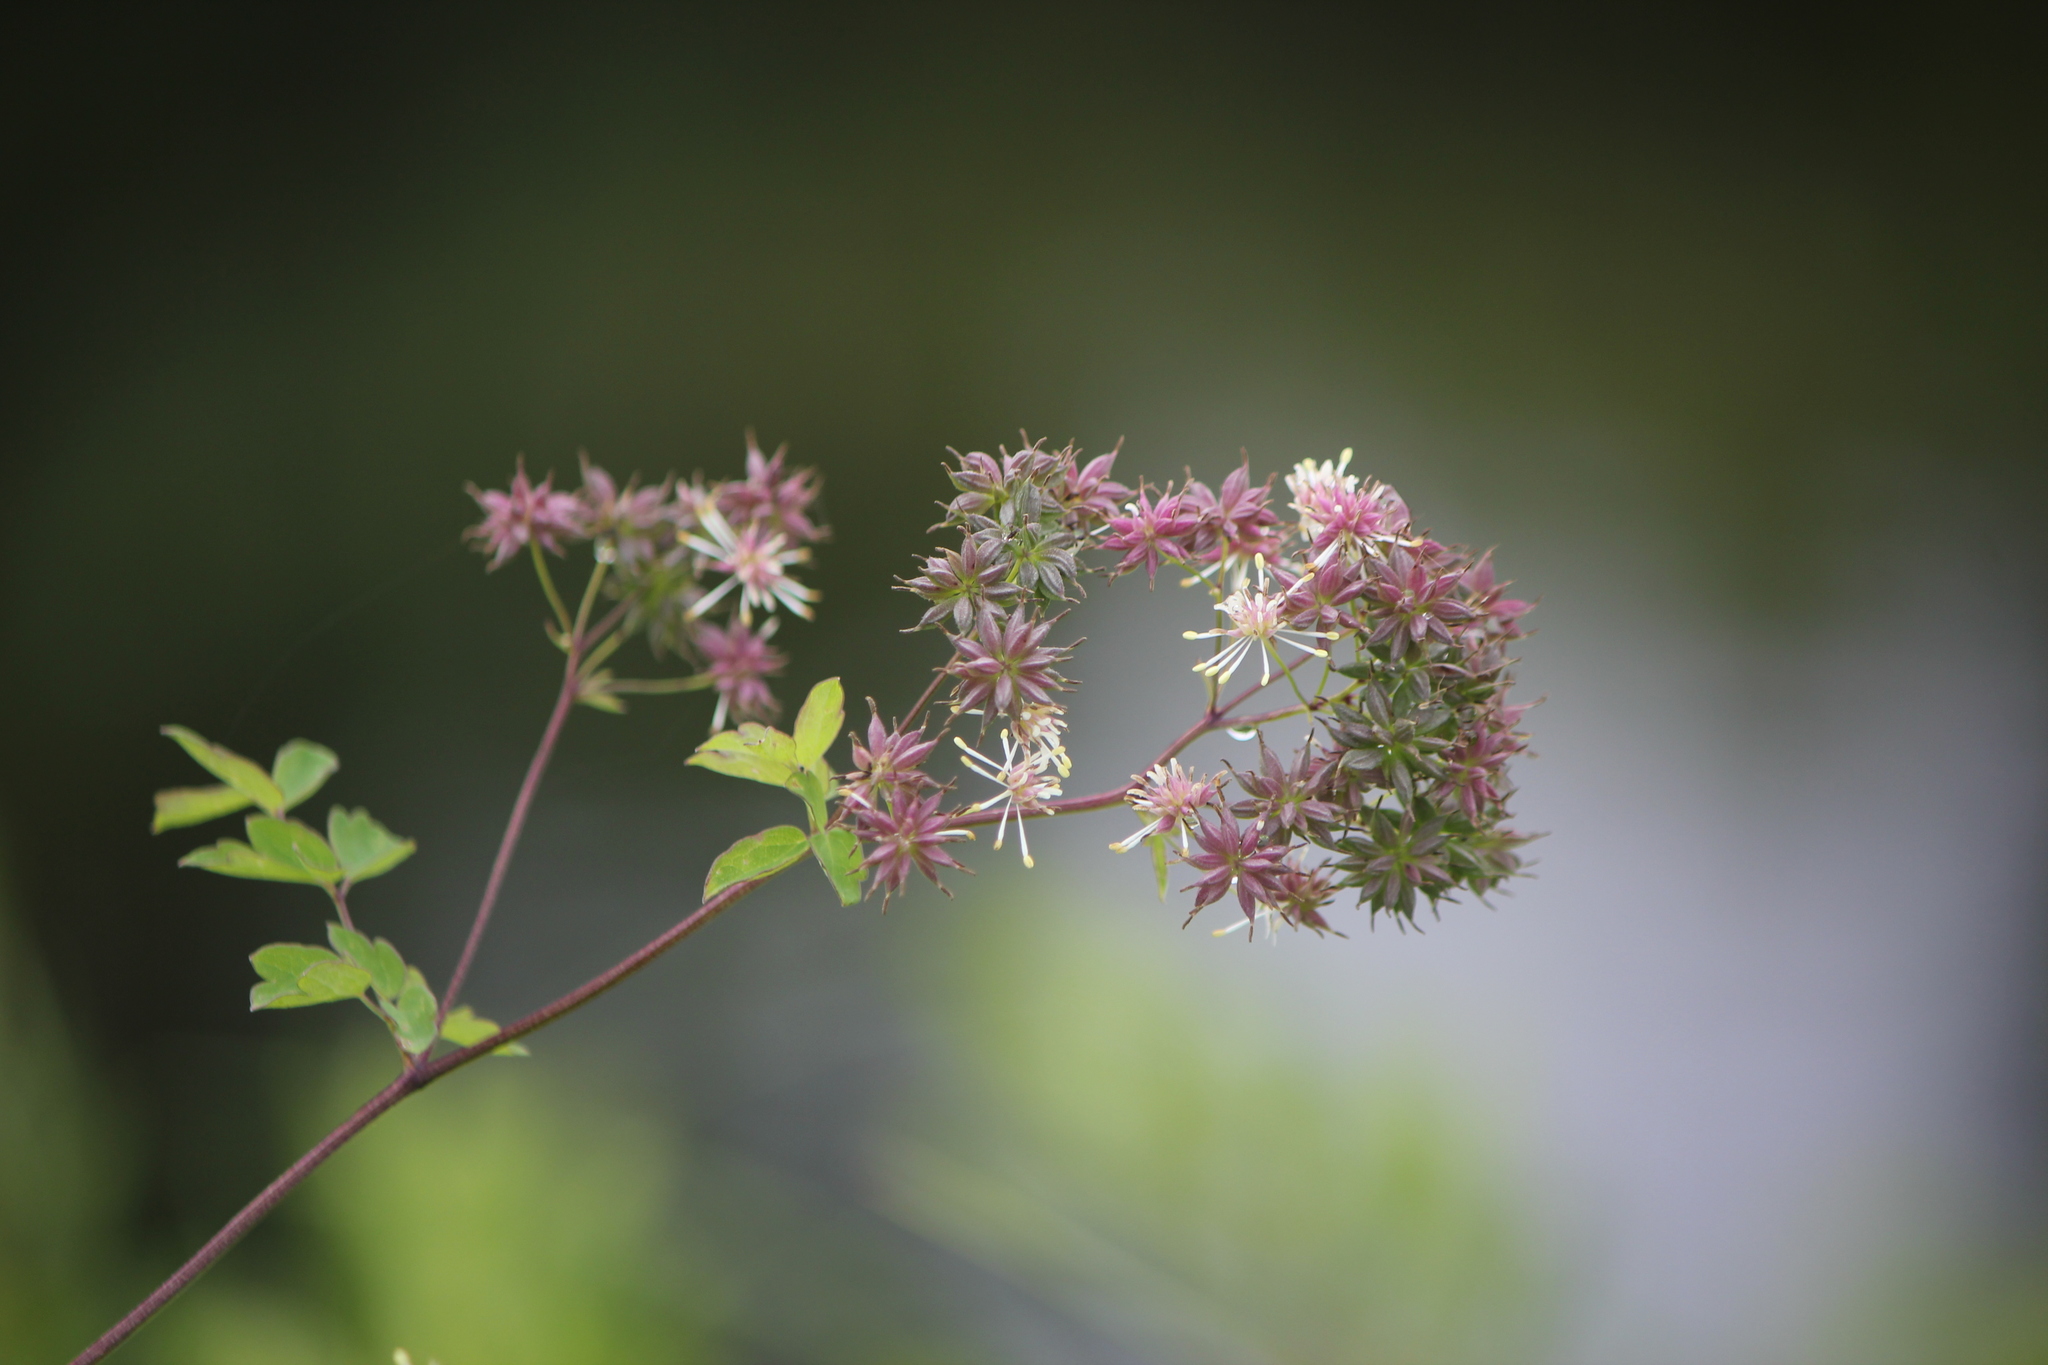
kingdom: Plantae
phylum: Tracheophyta
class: Magnoliopsida
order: Ranunculales
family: Ranunculaceae
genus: Thalictrum
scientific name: Thalictrum pubescens
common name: King-of-the-meadow
